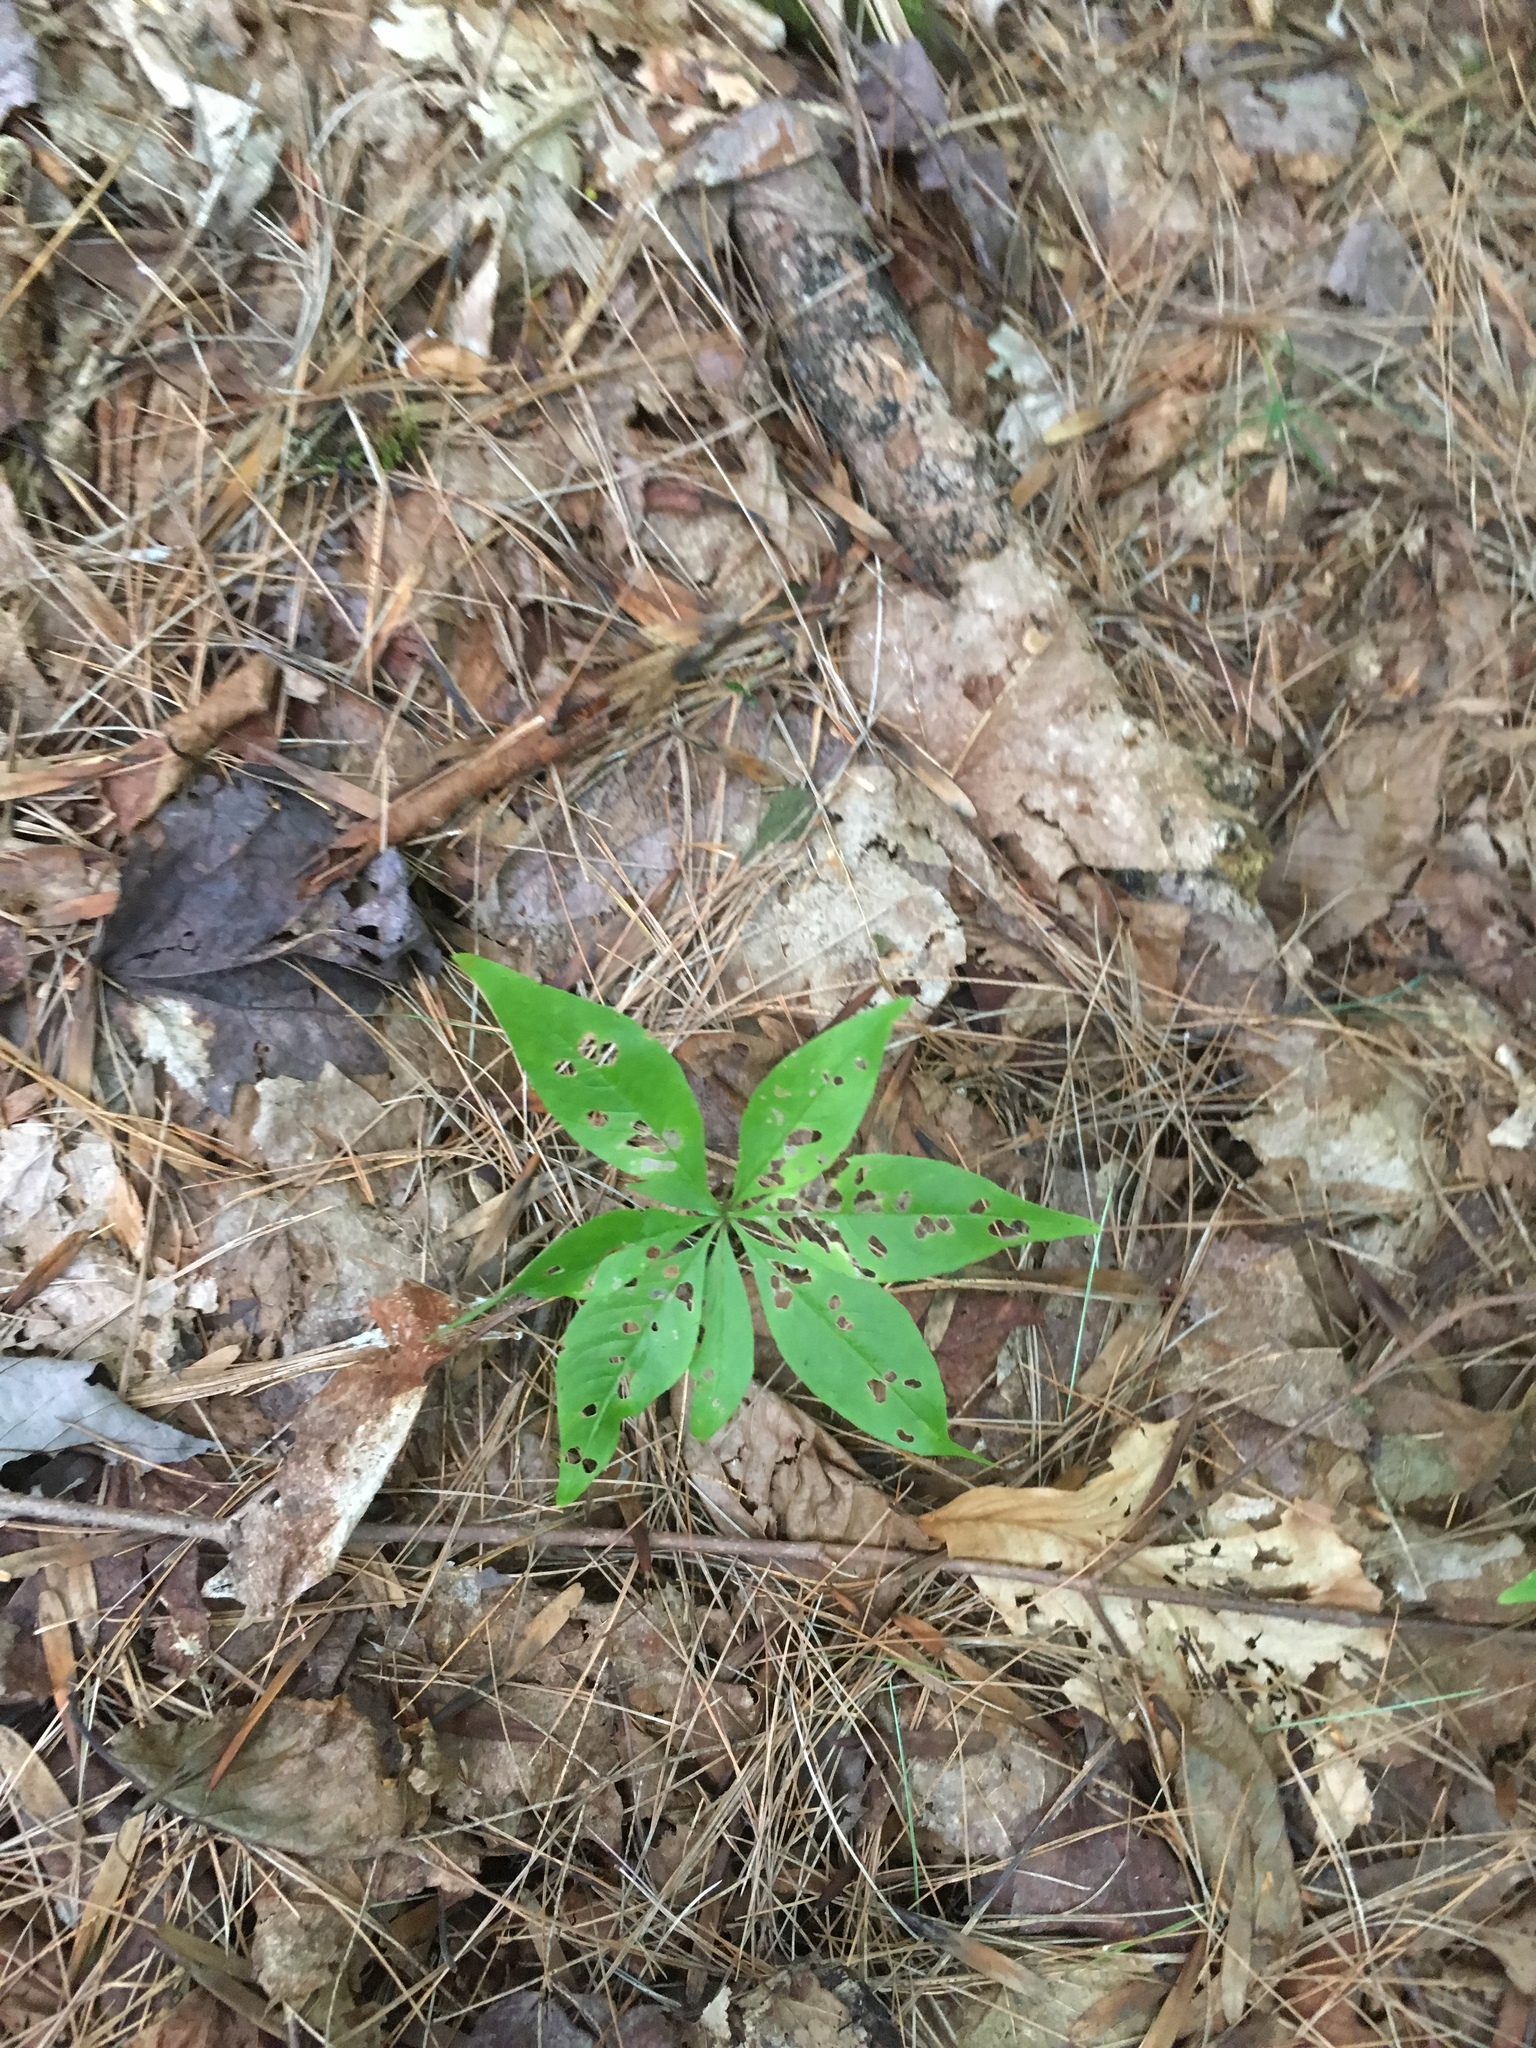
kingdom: Plantae
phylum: Tracheophyta
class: Magnoliopsida
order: Ericales
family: Primulaceae
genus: Lysimachia
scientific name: Lysimachia borealis
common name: American starflower
